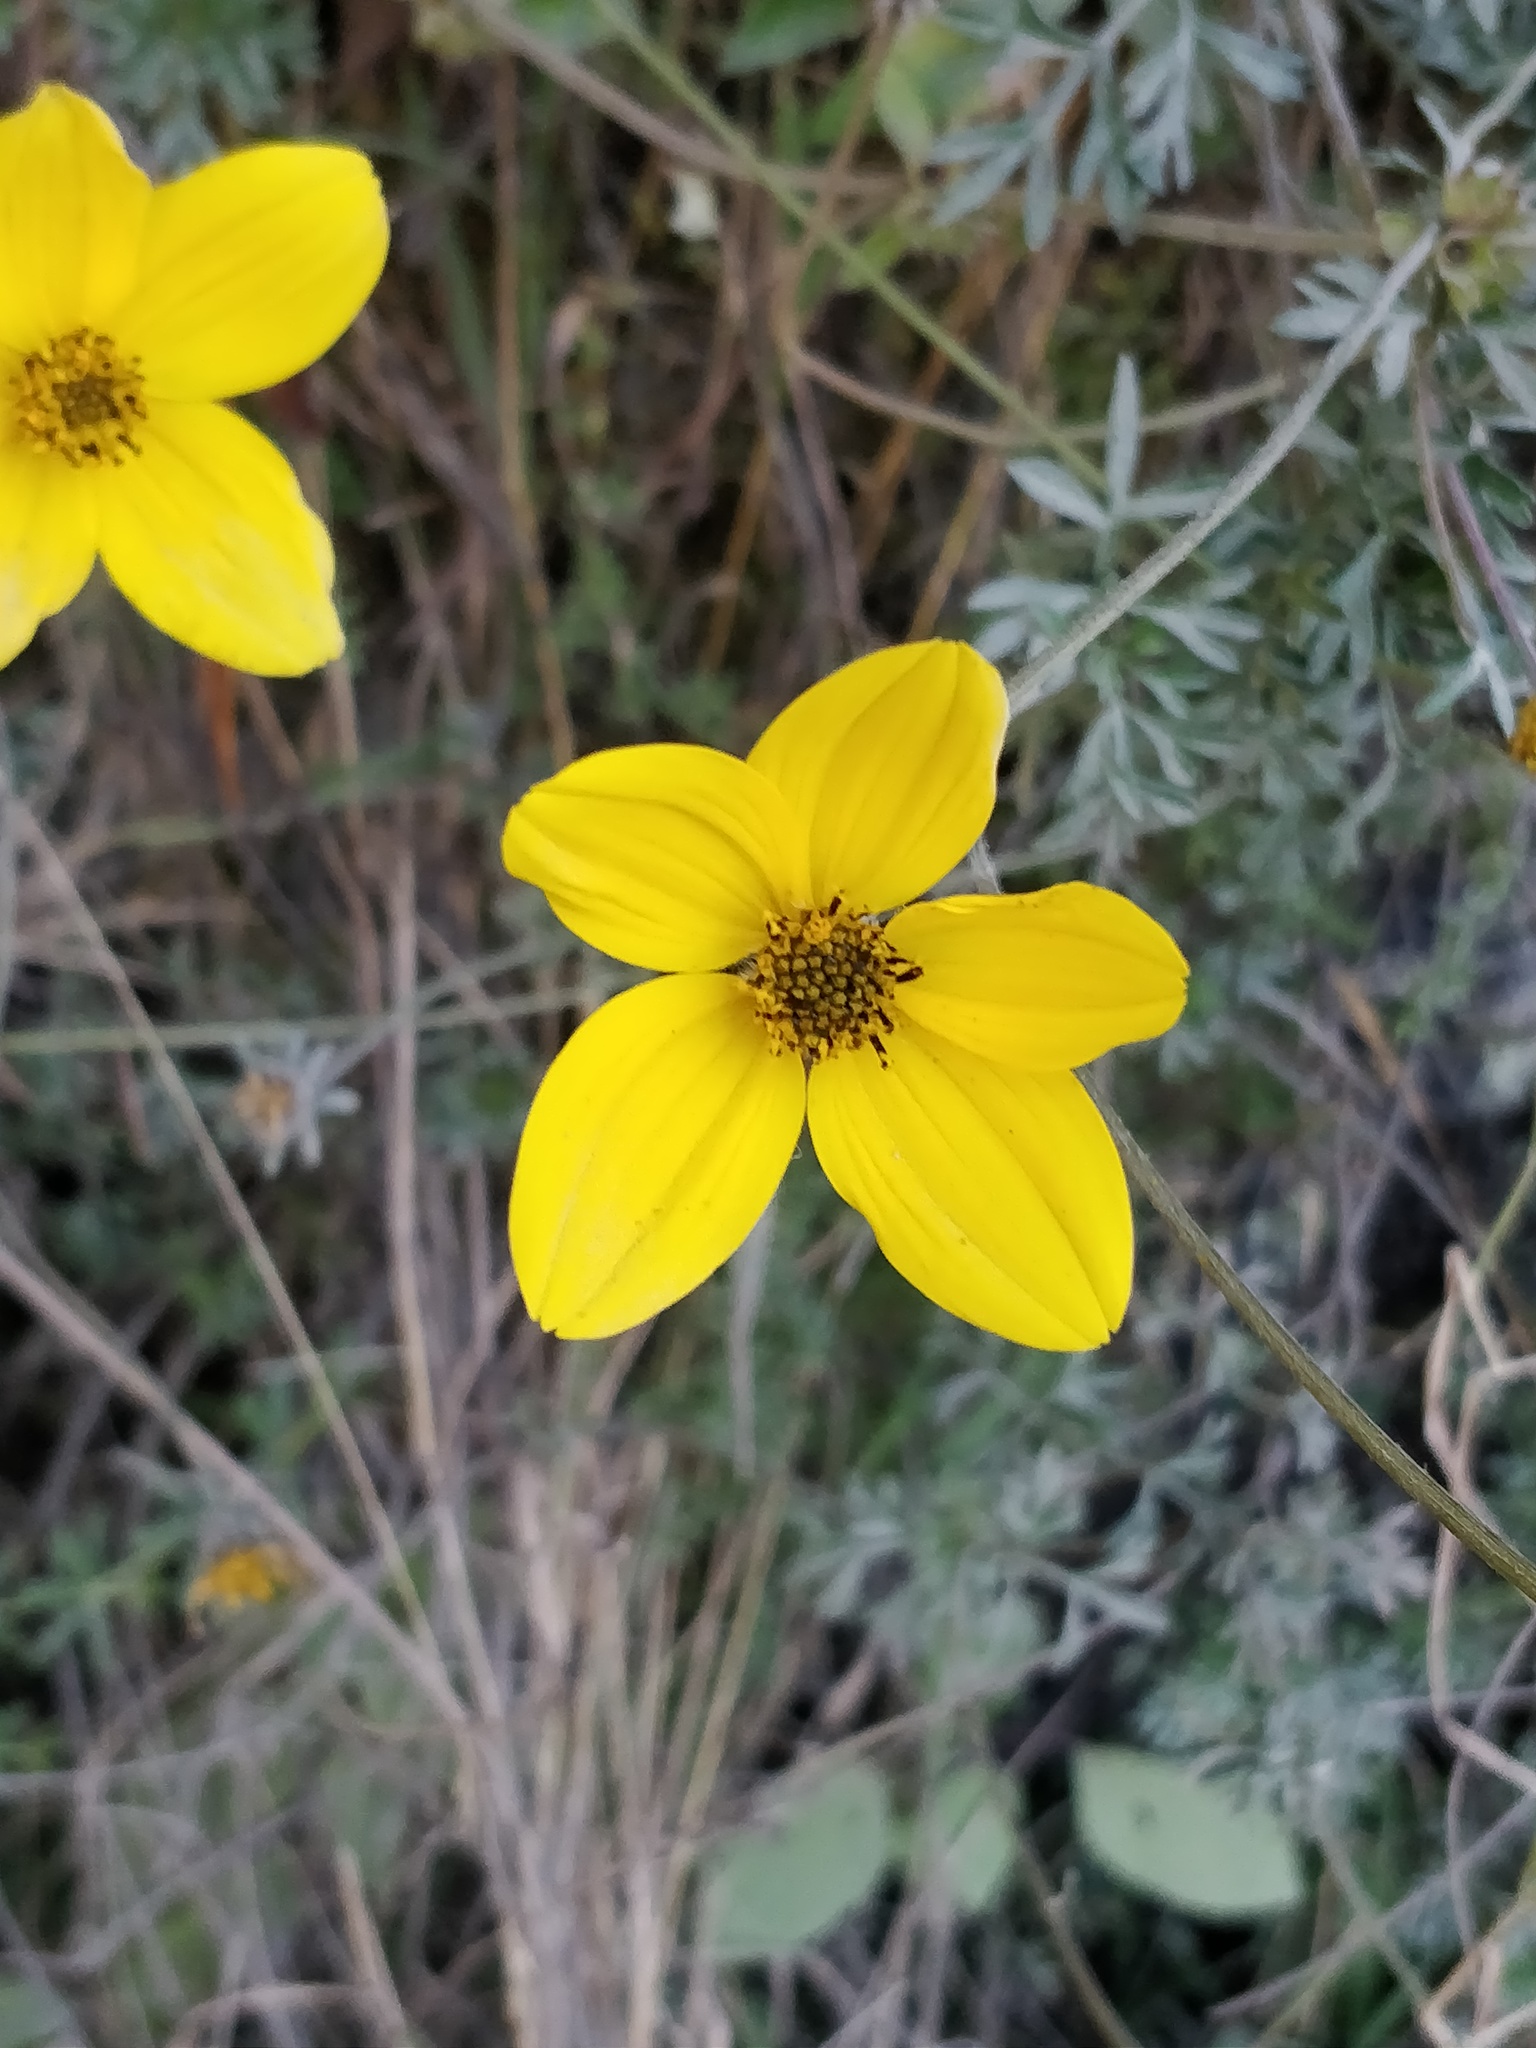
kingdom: Plantae
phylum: Tracheophyta
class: Magnoliopsida
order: Asterales
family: Asteraceae
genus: Bidens
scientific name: Bidens triplinervia
